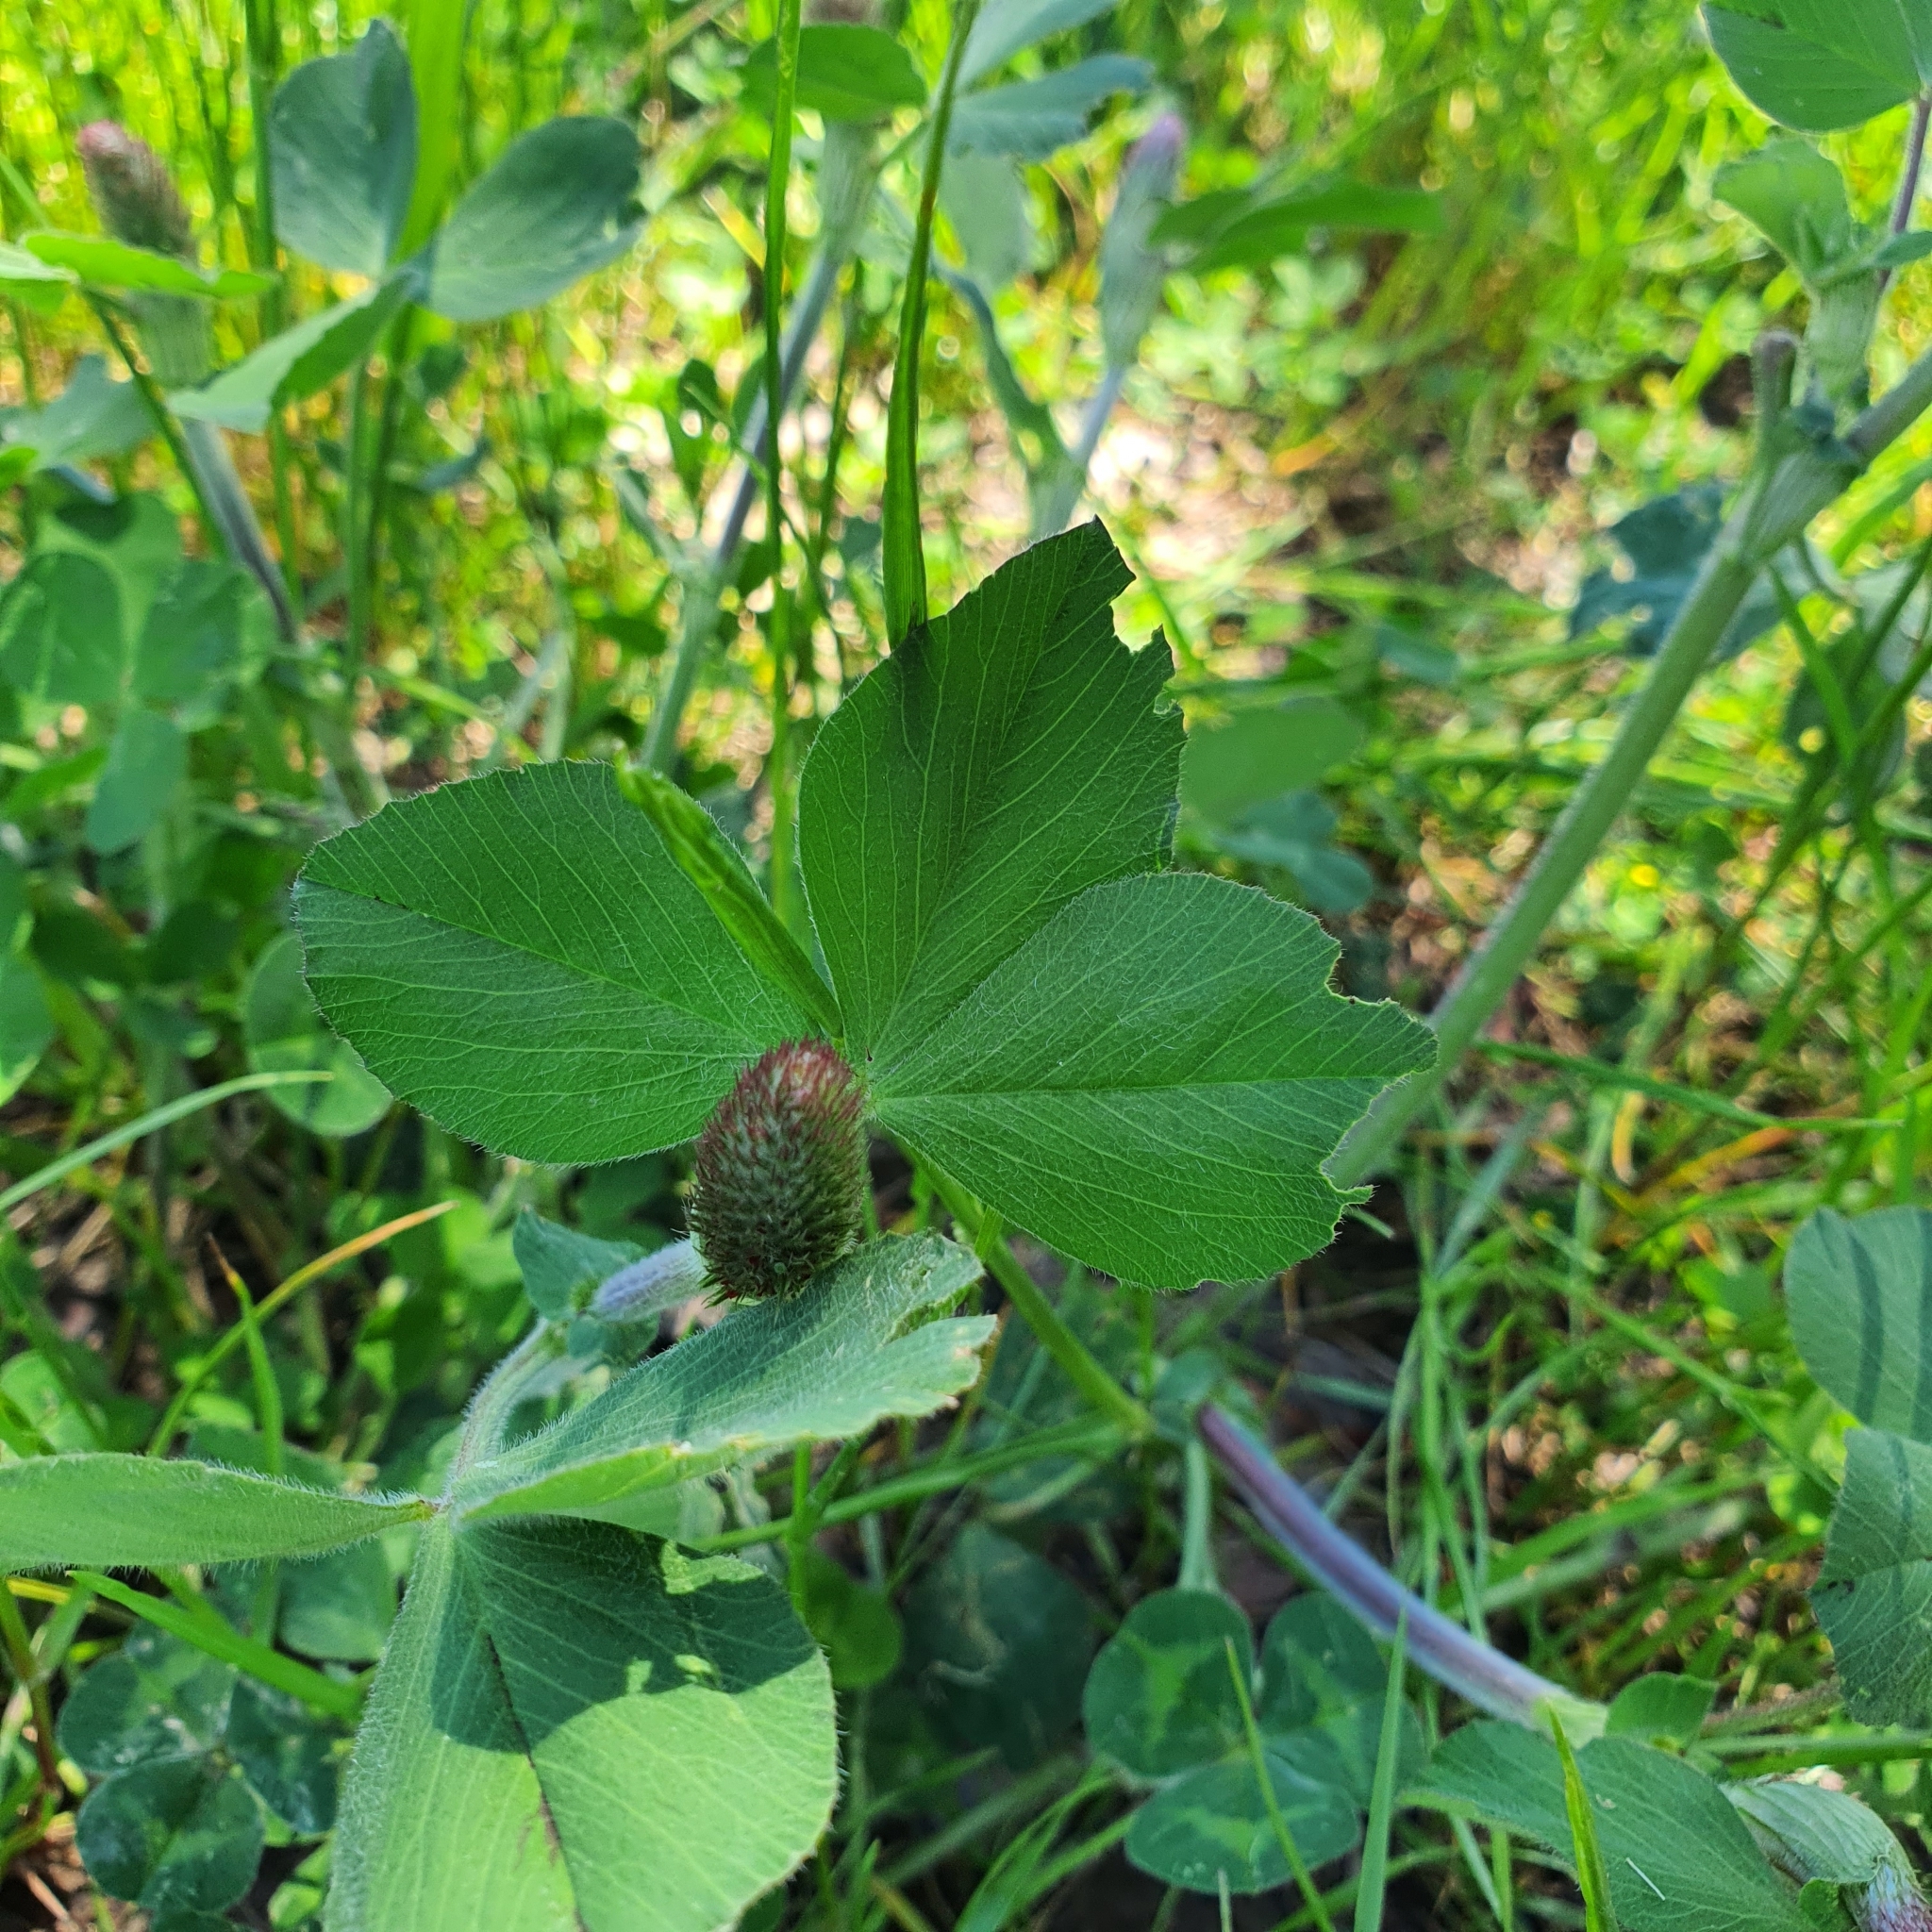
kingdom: Plantae
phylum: Tracheophyta
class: Magnoliopsida
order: Fabales
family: Fabaceae
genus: Trifolium
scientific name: Trifolium incarnatum
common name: Crimson clover
